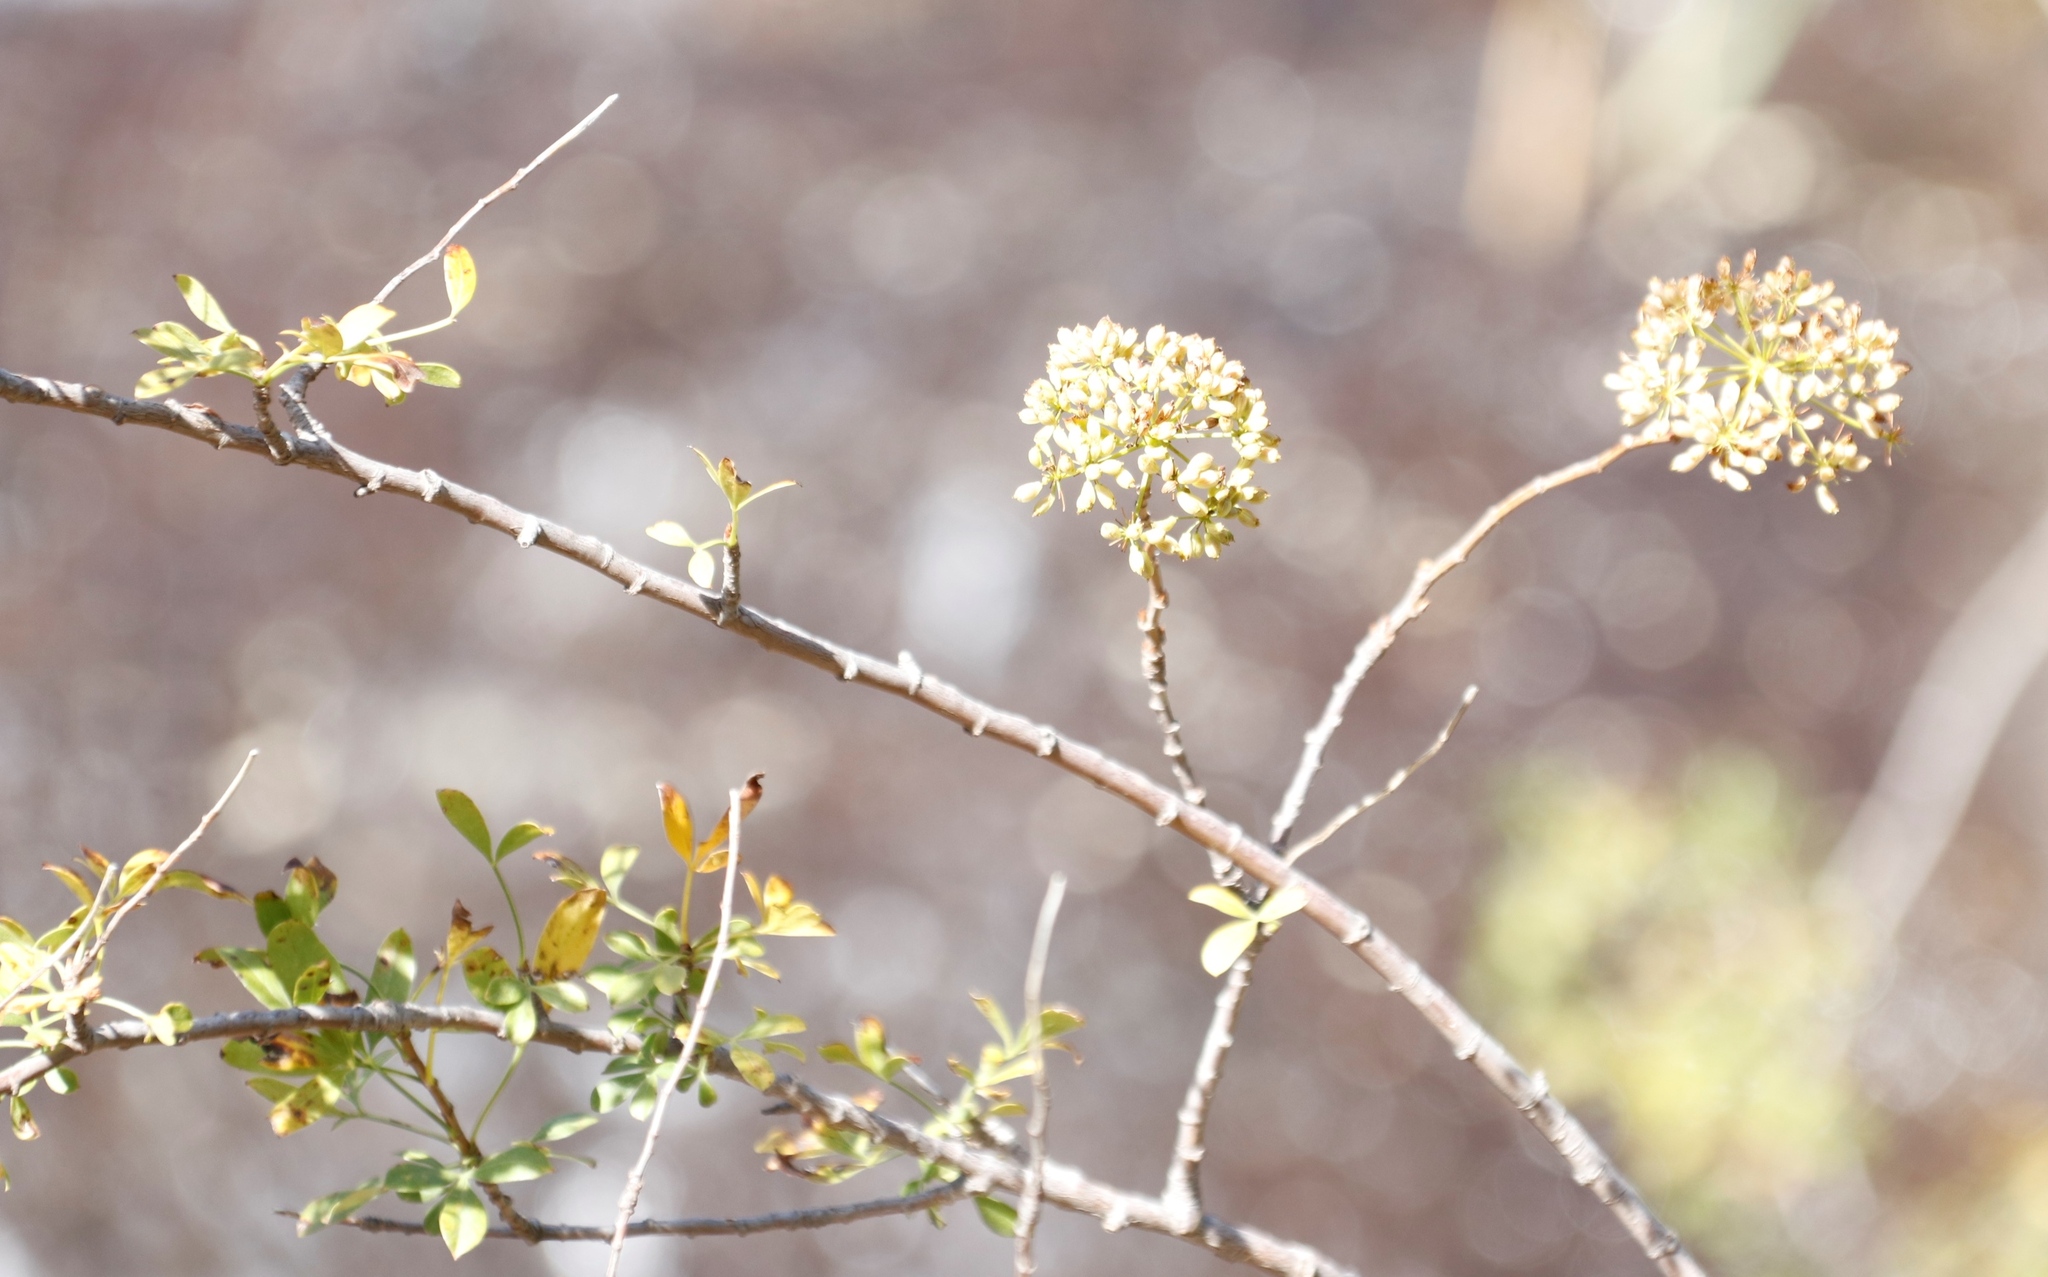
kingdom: Plantae
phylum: Tracheophyta
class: Magnoliopsida
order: Apiales
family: Apiaceae
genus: Polemannia
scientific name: Polemannia simplicior
